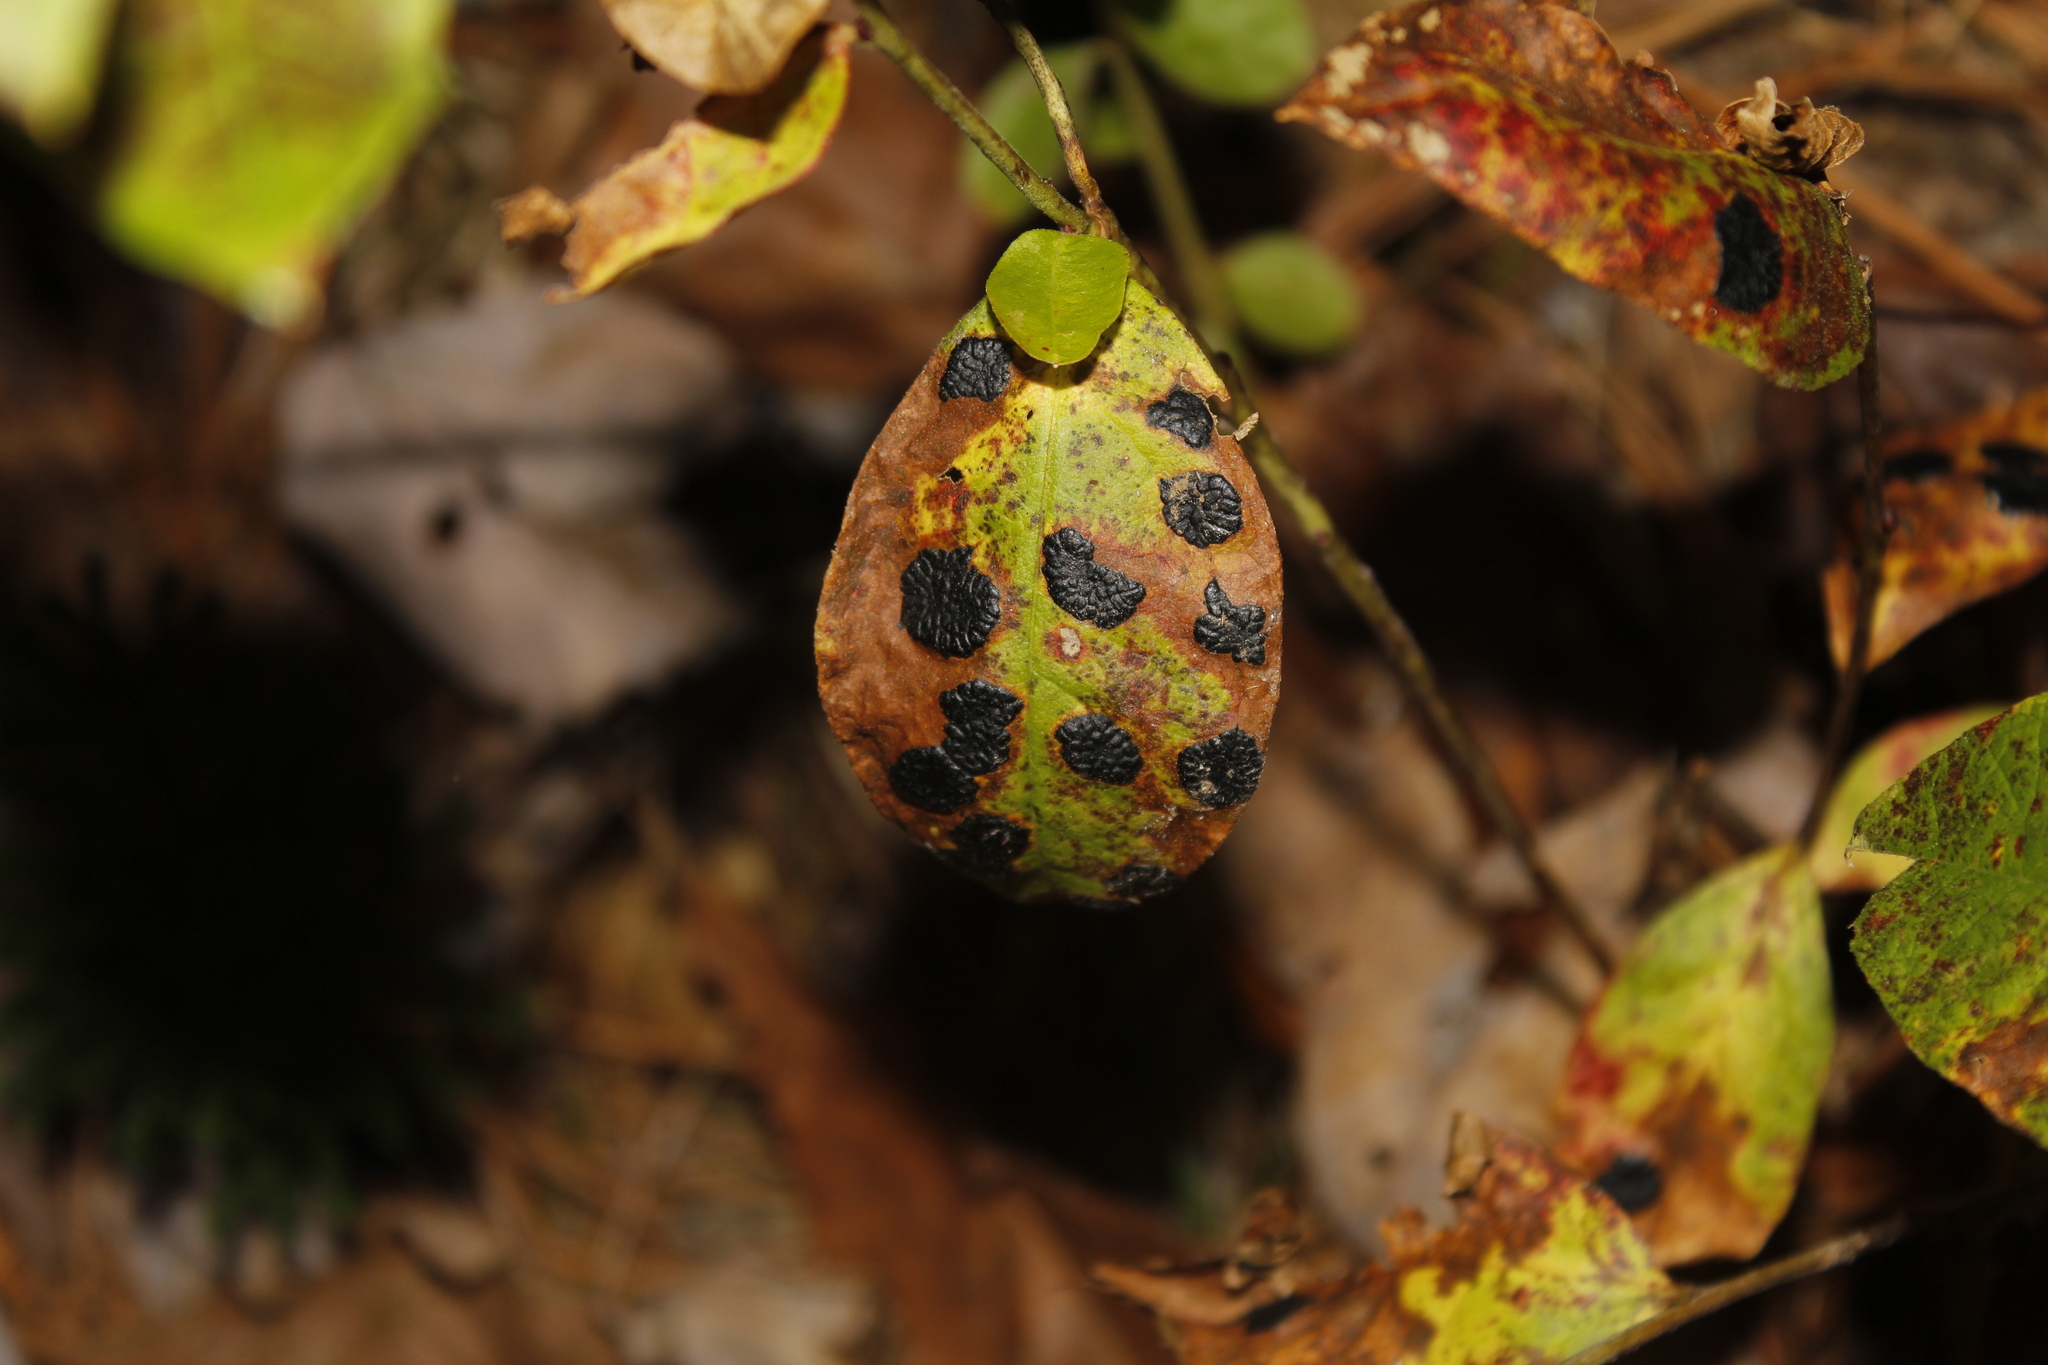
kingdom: Fungi
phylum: Ascomycota
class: Leotiomycetes
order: Rhytismatales
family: Rhytismataceae
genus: Rhytisma
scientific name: Rhytisma
